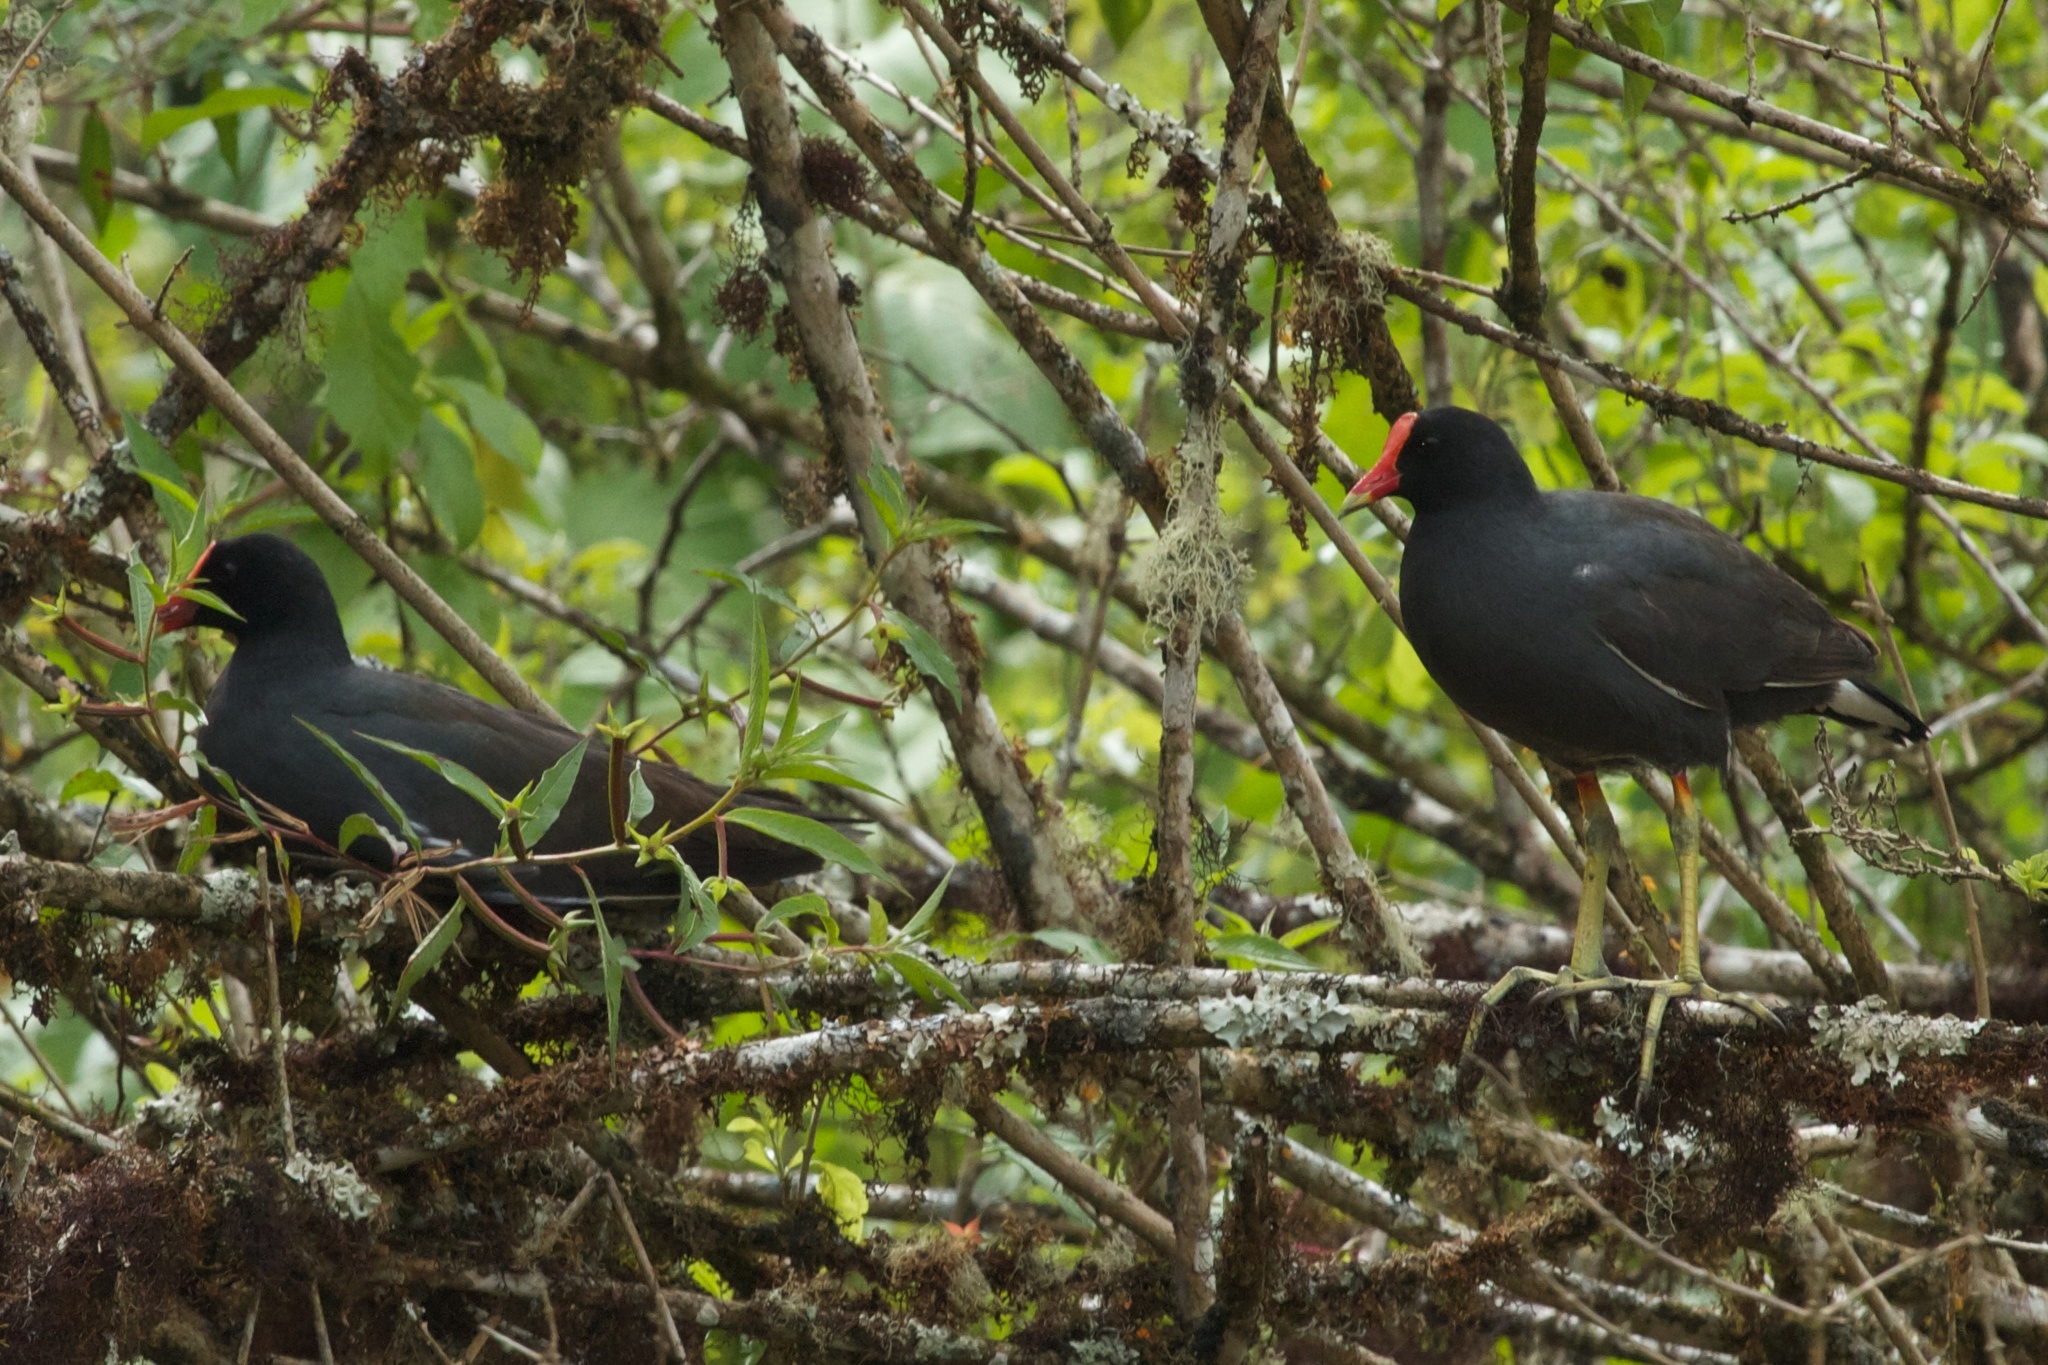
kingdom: Animalia
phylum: Chordata
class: Aves
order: Gruiformes
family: Rallidae
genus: Gallinula
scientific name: Gallinula chloropus
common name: Common moorhen
